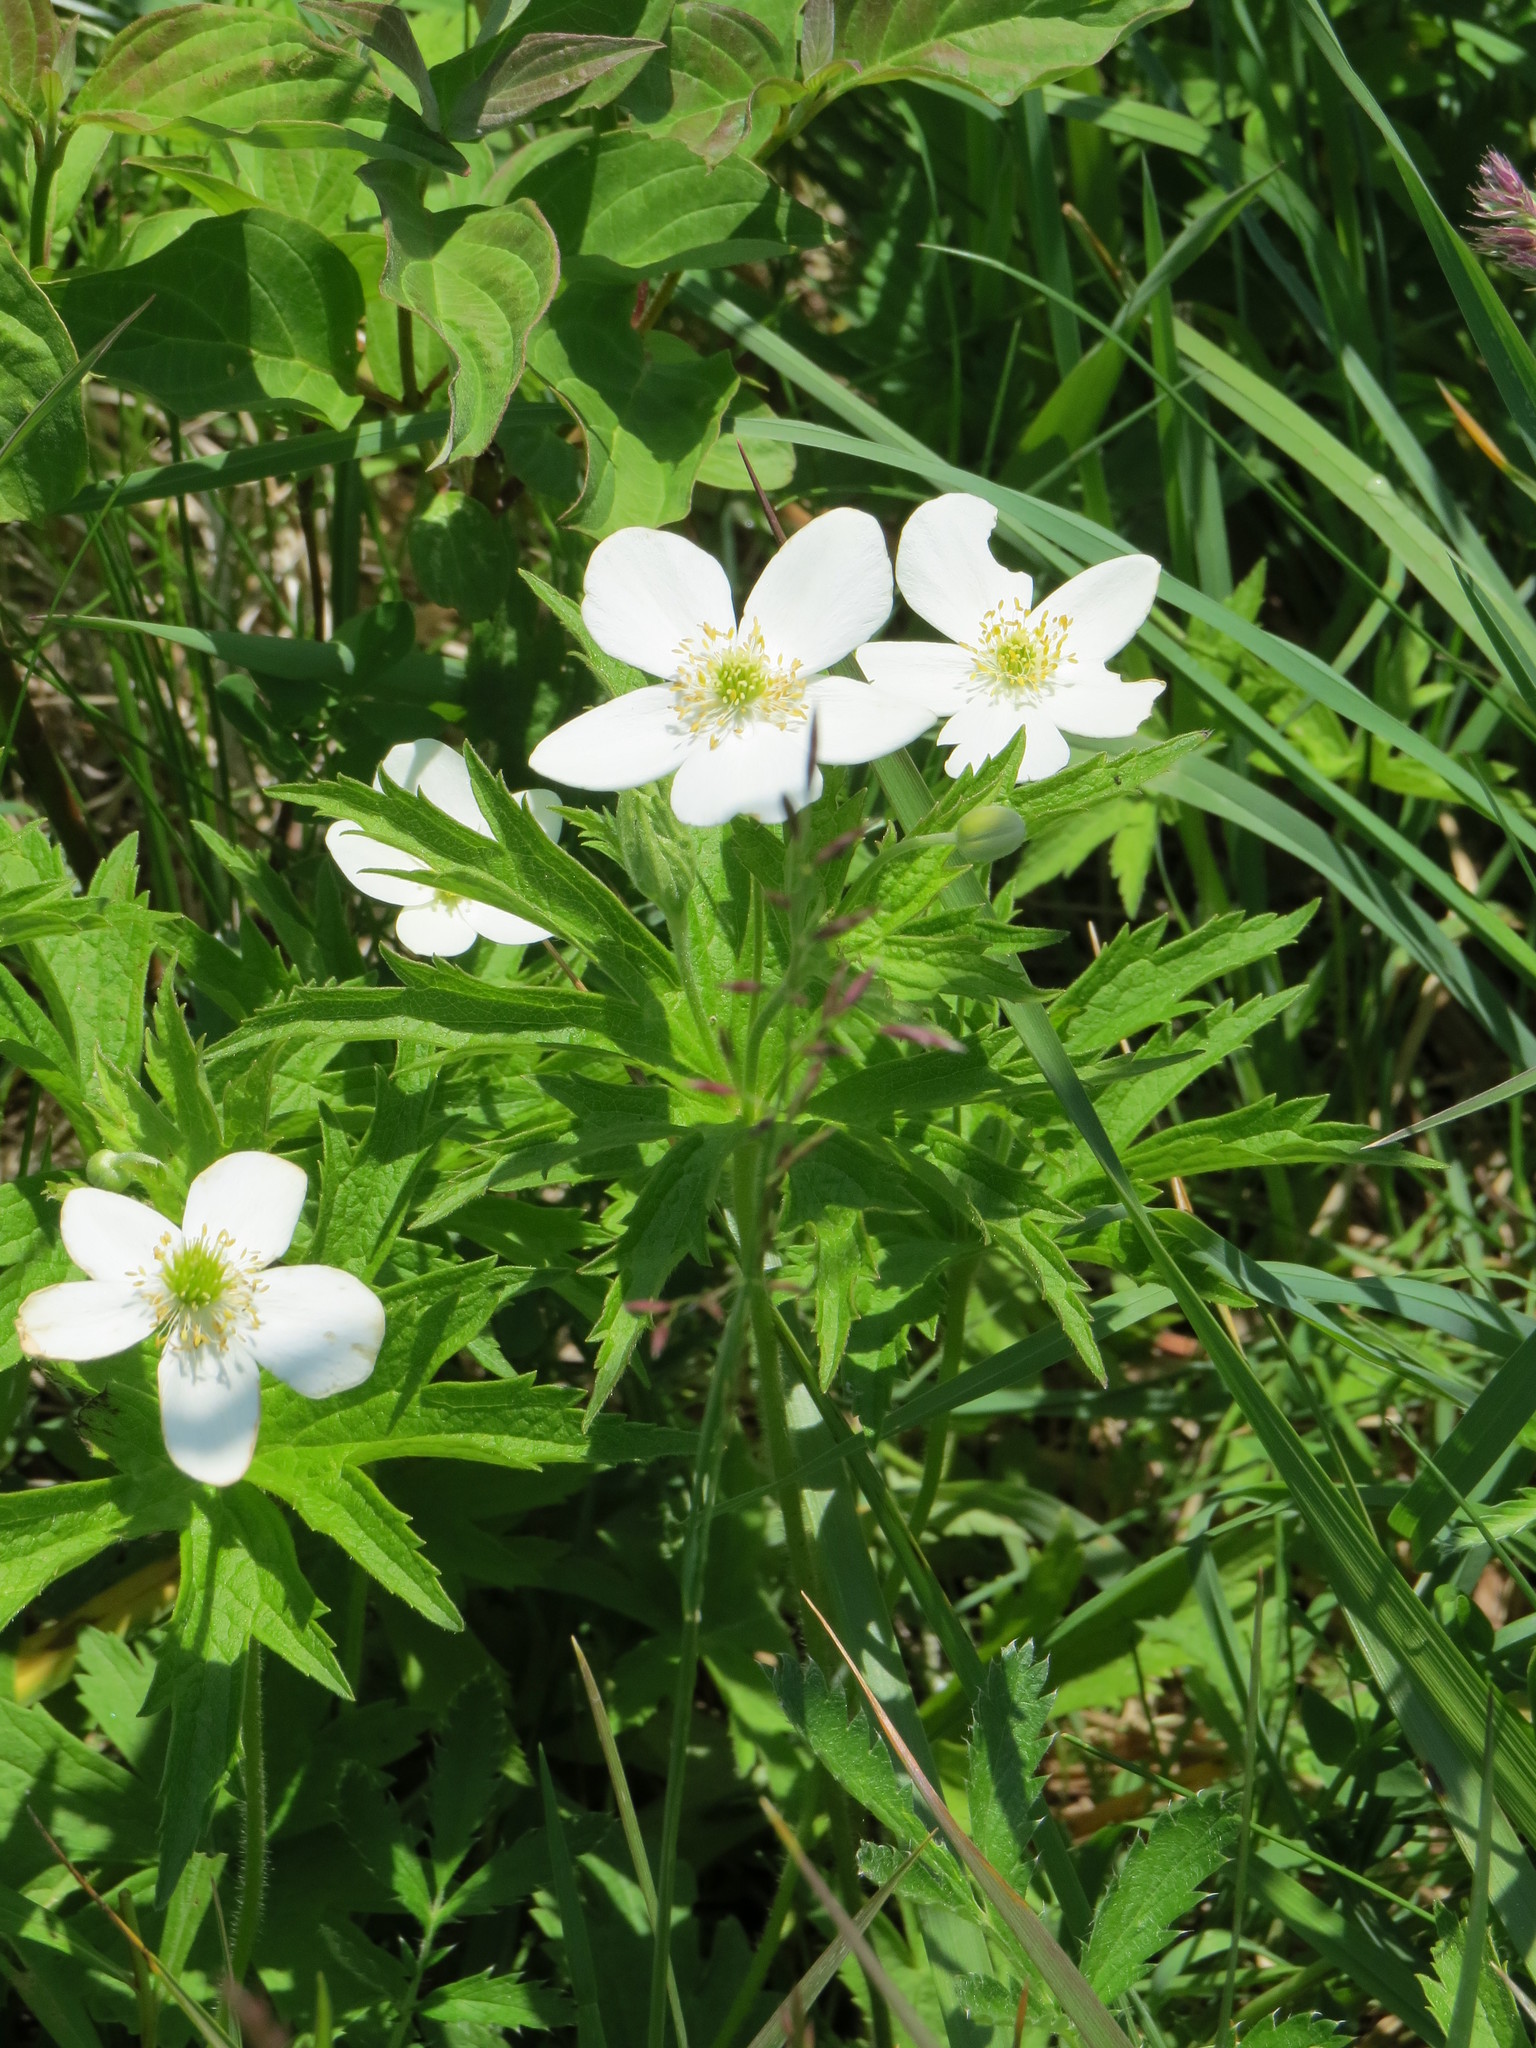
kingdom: Plantae
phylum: Tracheophyta
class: Magnoliopsida
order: Ranunculales
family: Ranunculaceae
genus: Anemonastrum
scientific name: Anemonastrum canadense
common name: Canada anemone
